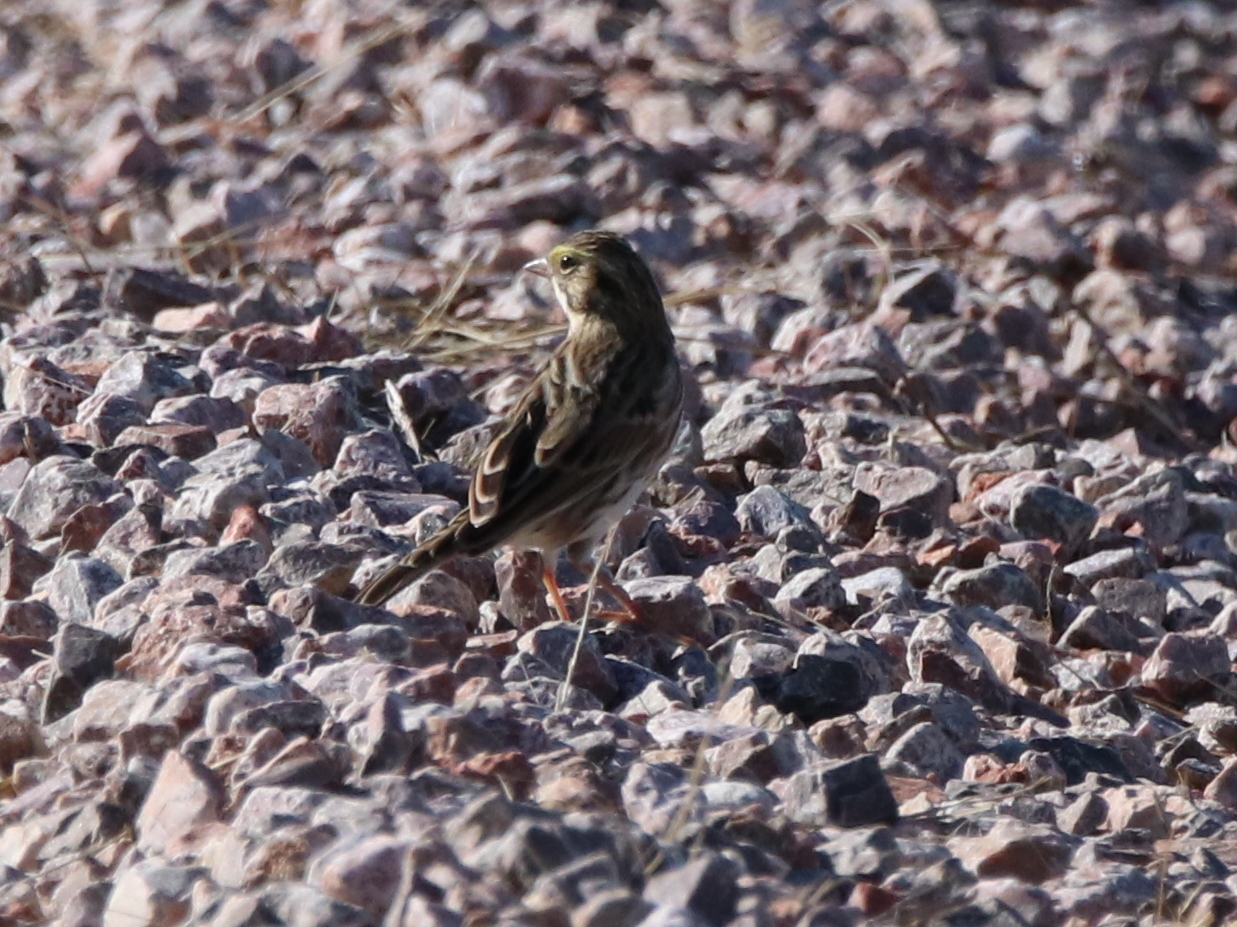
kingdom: Animalia
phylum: Chordata
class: Aves
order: Passeriformes
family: Passerellidae
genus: Passerculus
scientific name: Passerculus sandwichensis
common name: Savannah sparrow
